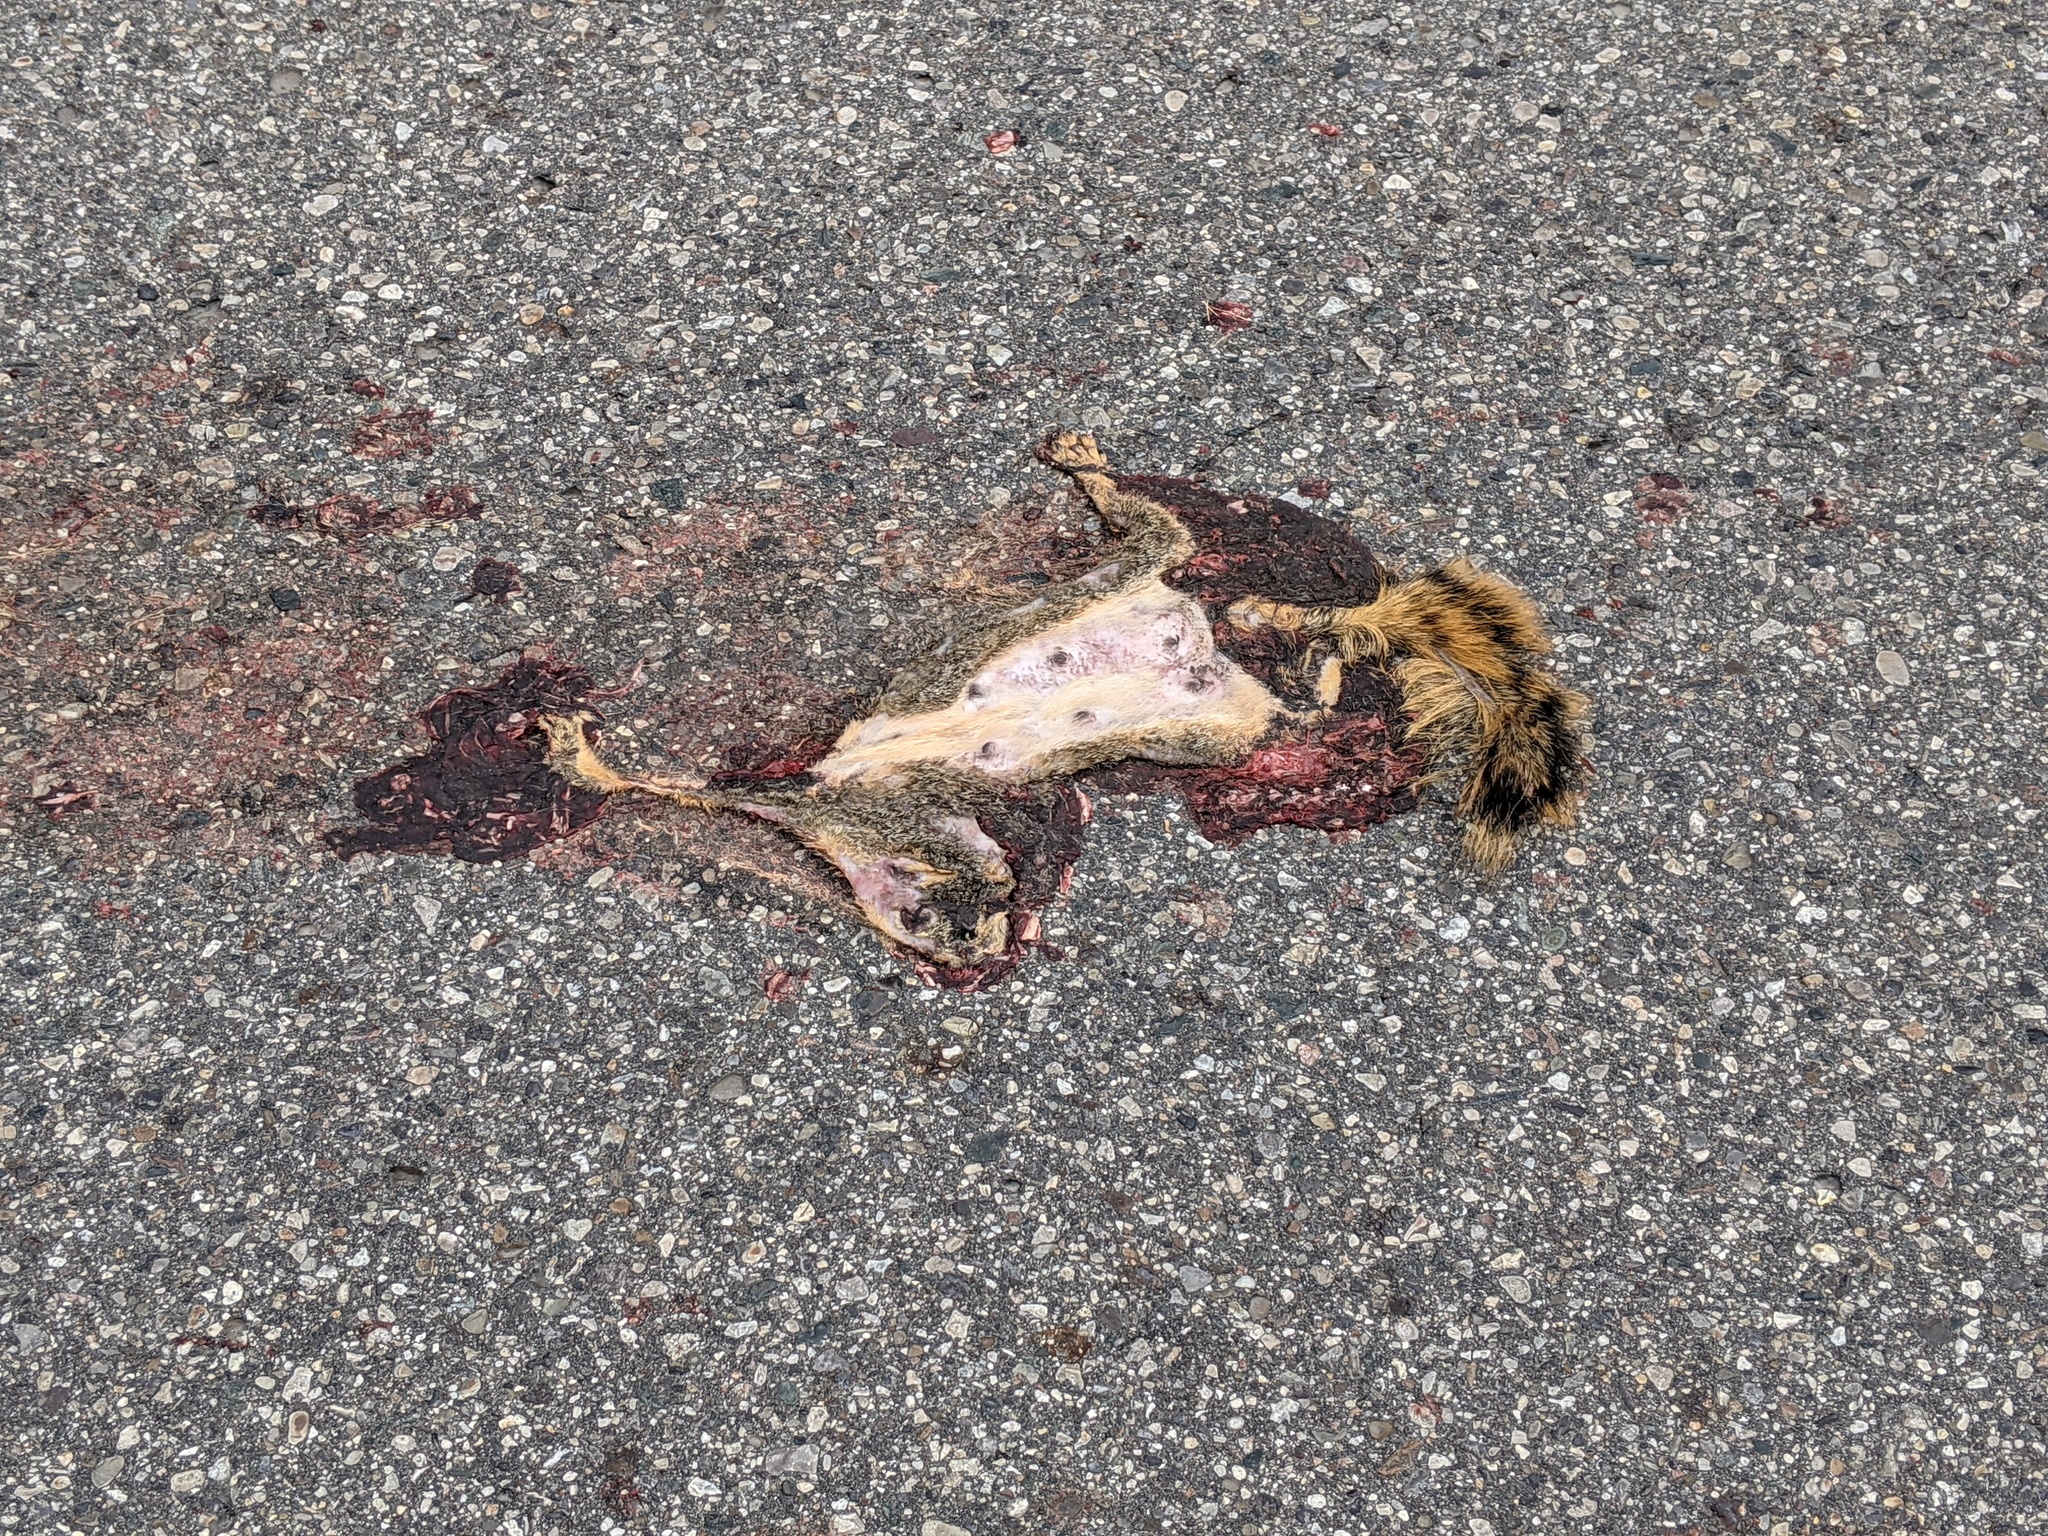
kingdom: Animalia
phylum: Chordata
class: Mammalia
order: Rodentia
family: Sciuridae
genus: Sciurus
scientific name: Sciurus niger
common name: Fox squirrel
